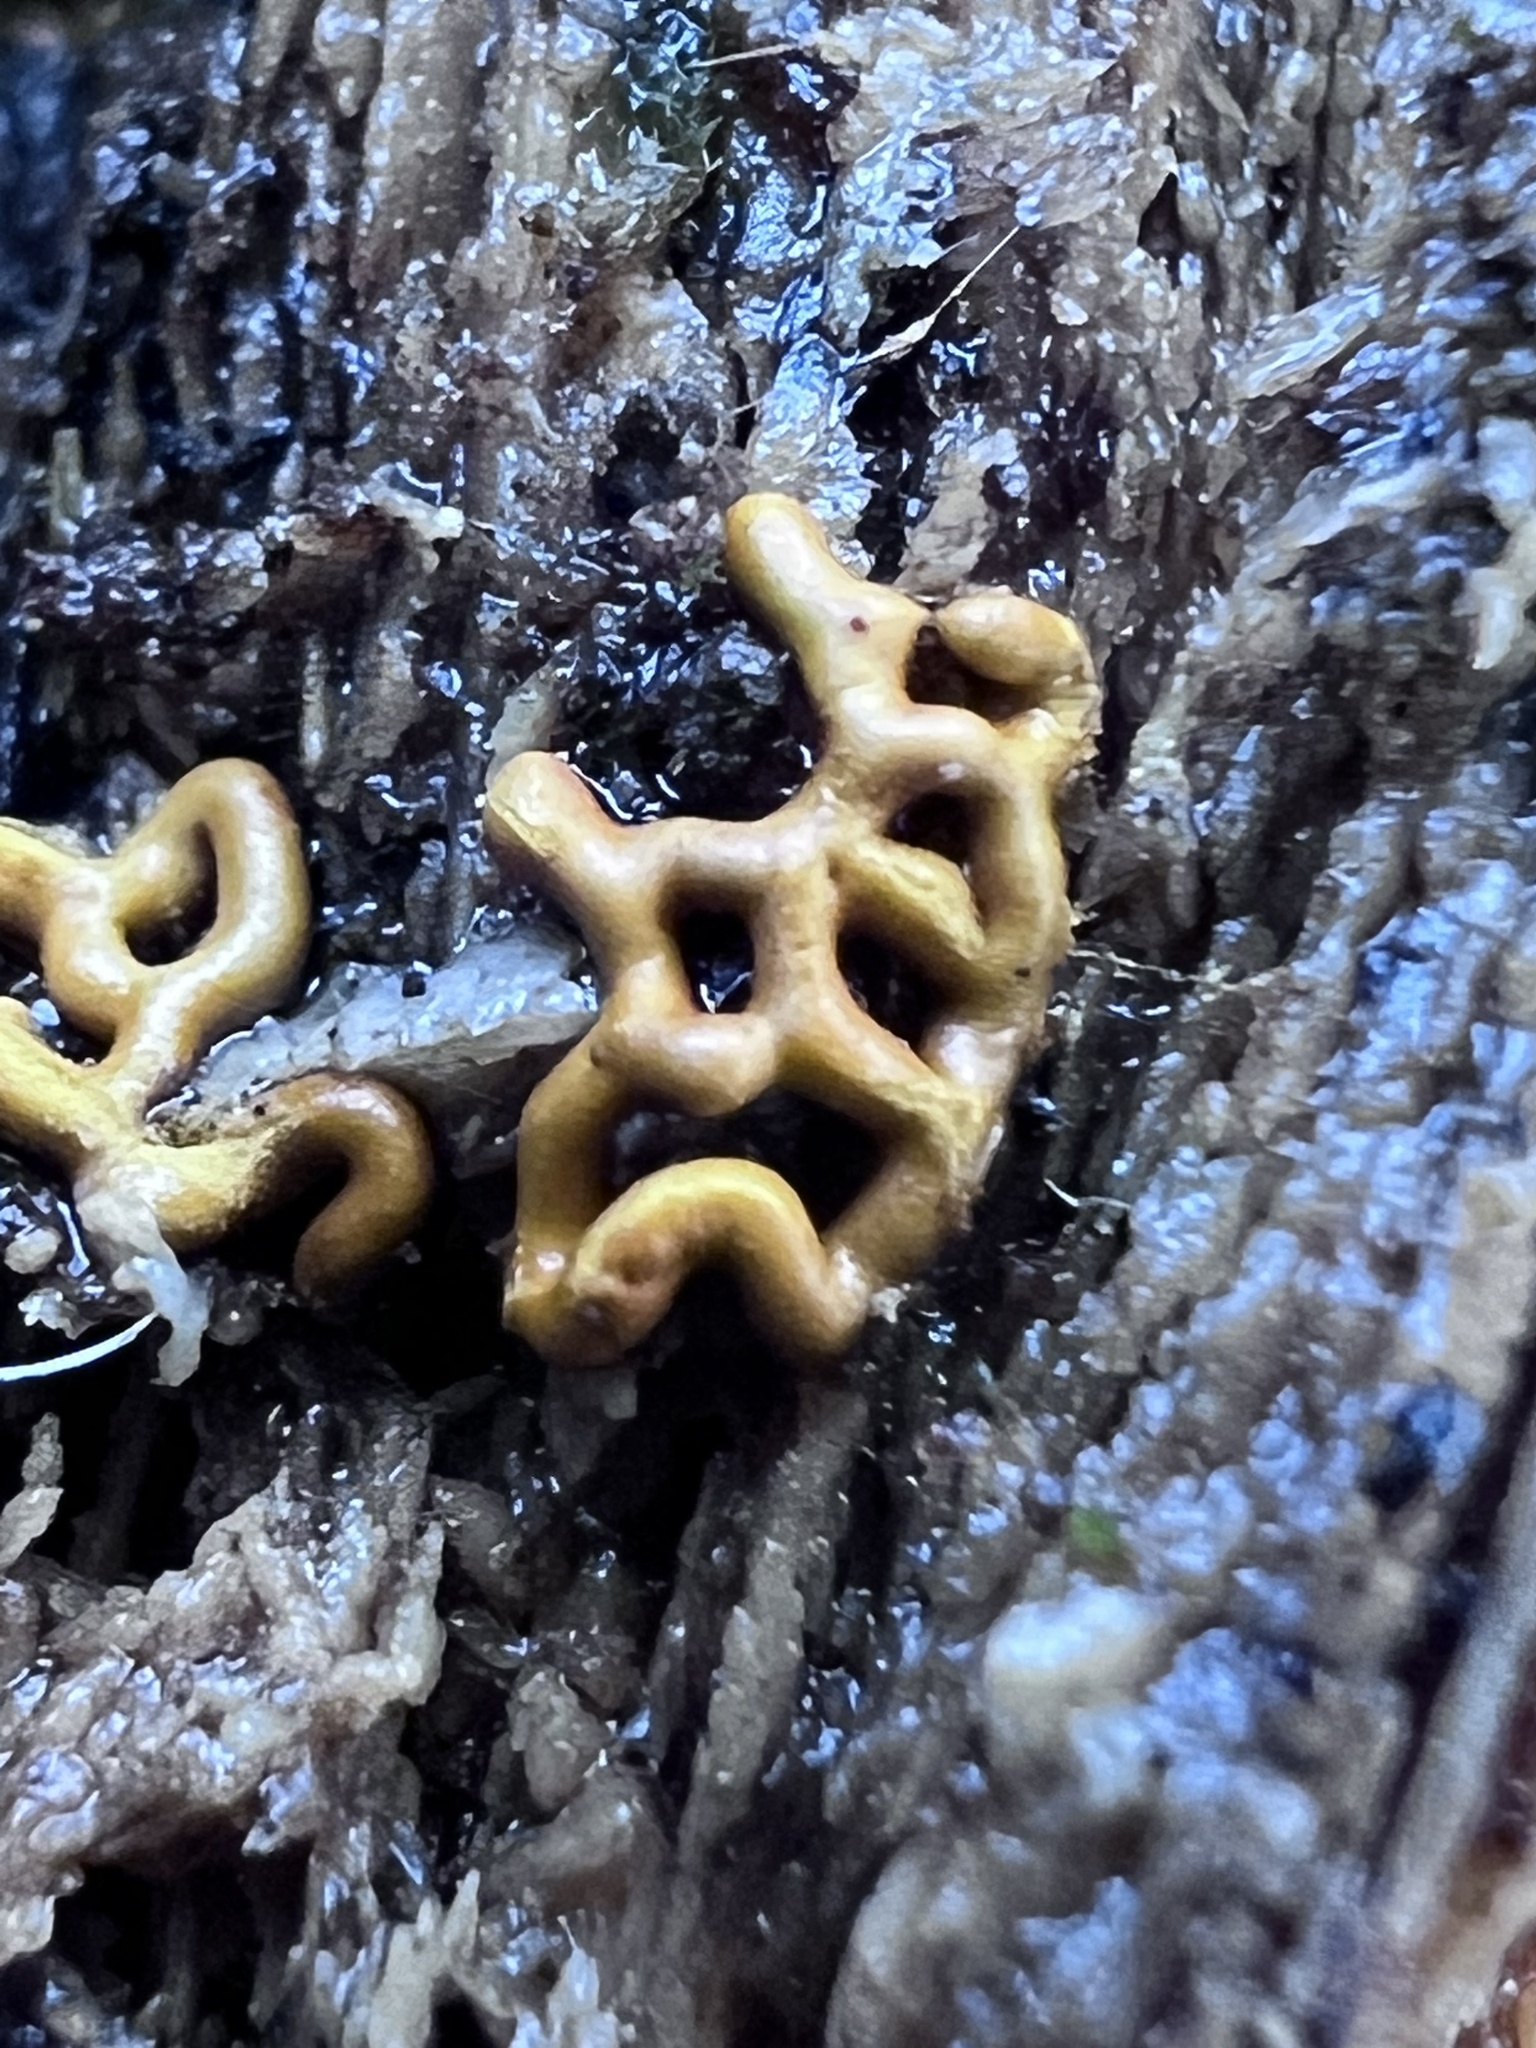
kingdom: Protozoa
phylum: Mycetozoa
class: Myxomycetes
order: Trichiales
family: Arcyriaceae
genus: Hemitrichia
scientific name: Hemitrichia serpula
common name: Pretzel slime mold
